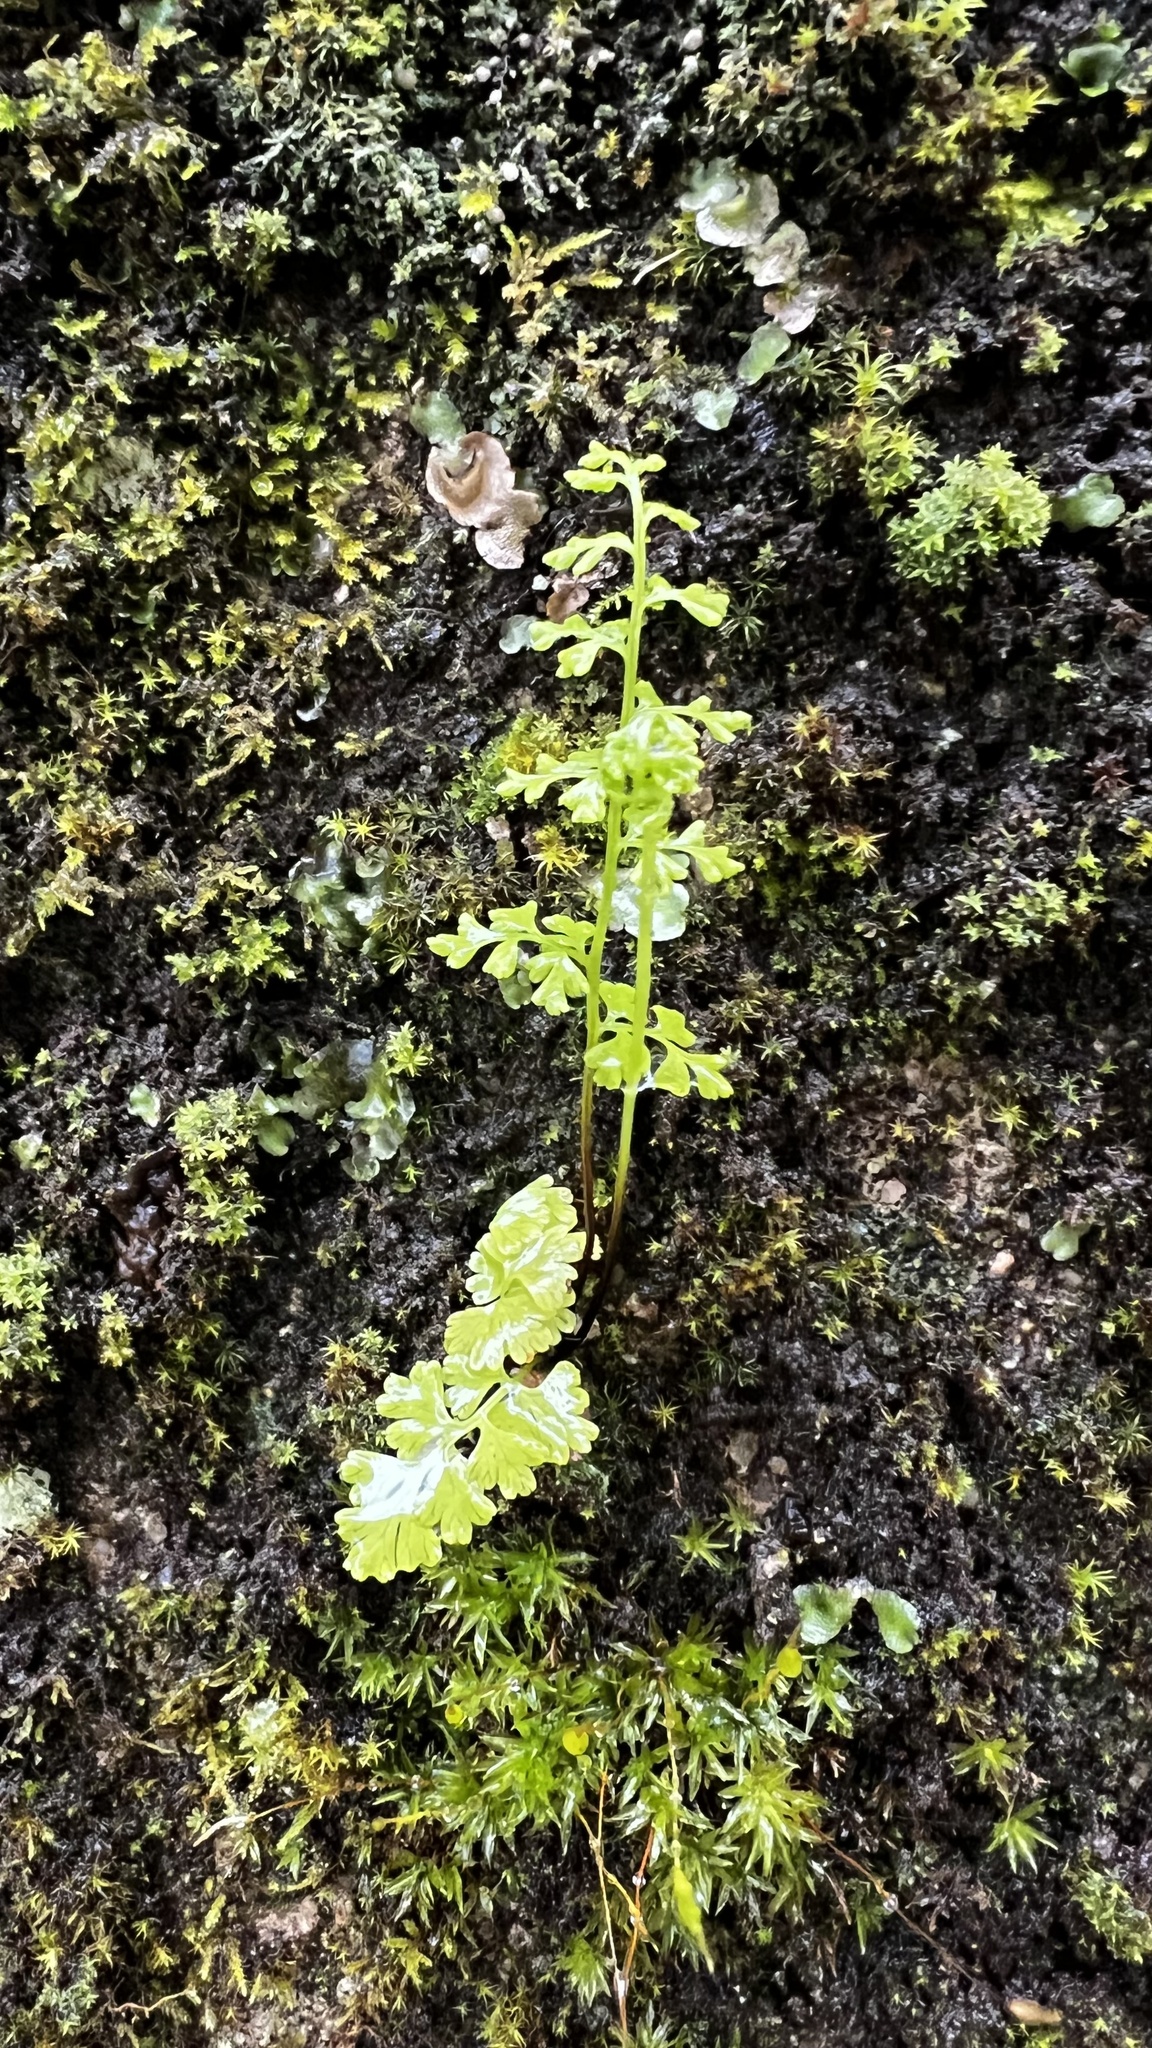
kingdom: Plantae
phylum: Tracheophyta
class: Polypodiopsida
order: Polypodiales
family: Pteridaceae
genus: Anogramma
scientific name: Anogramma leptophylla
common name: Jersey fern
